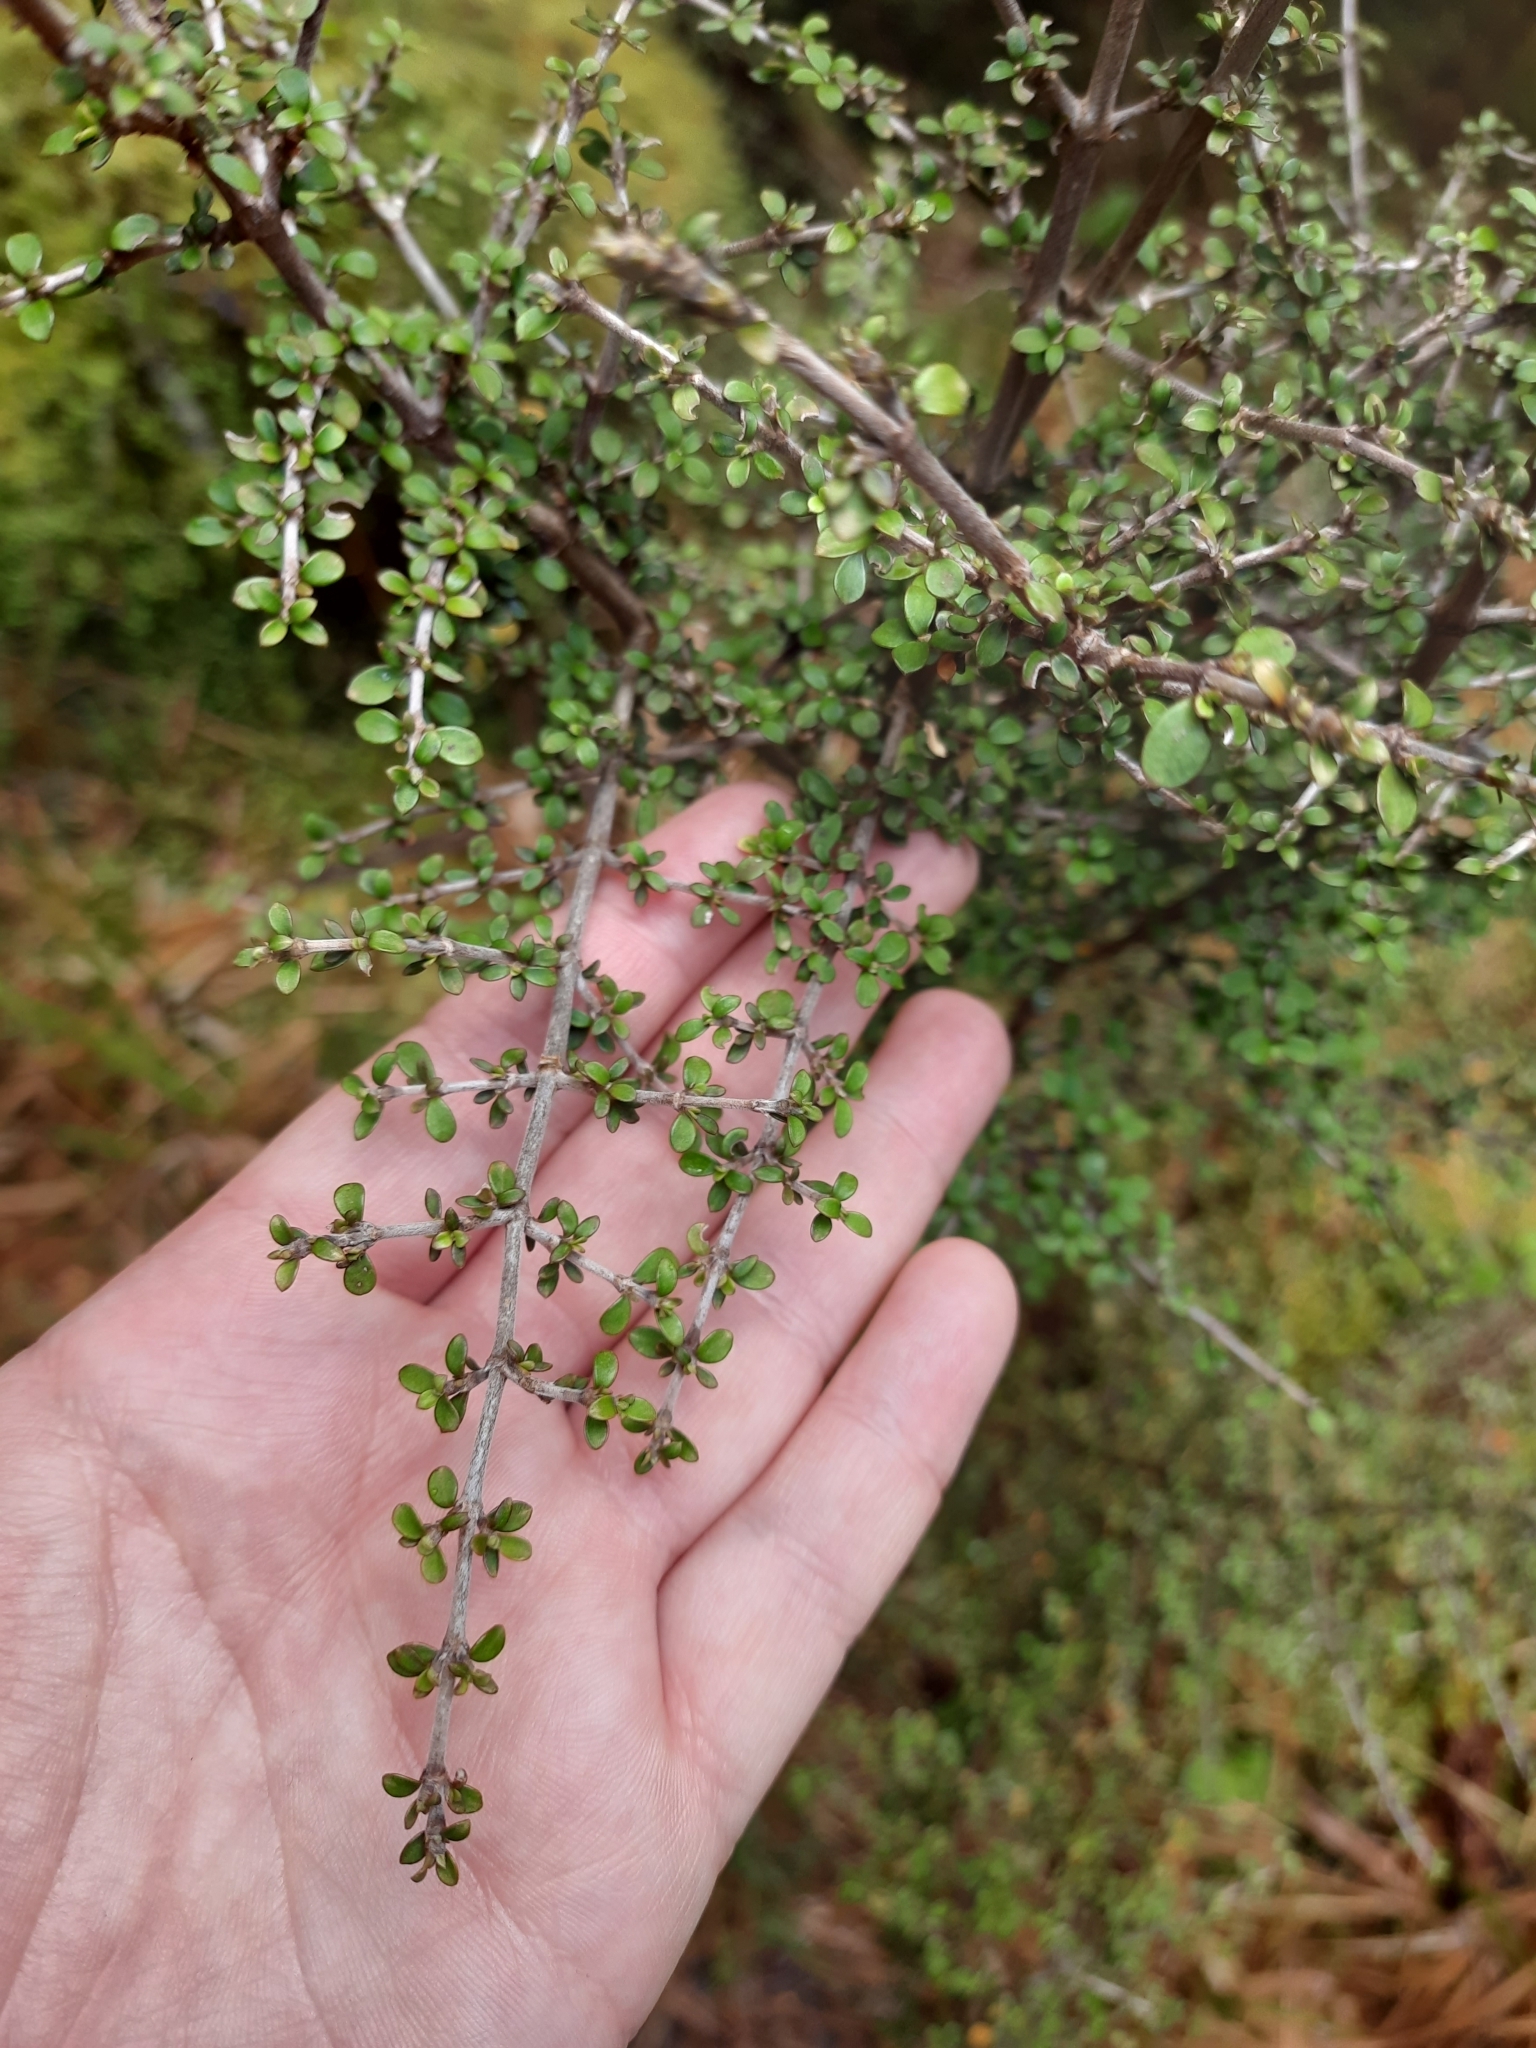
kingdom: Plantae
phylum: Tracheophyta
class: Magnoliopsida
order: Gentianales
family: Rubiaceae
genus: Coprosma
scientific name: Coprosma dumosa
